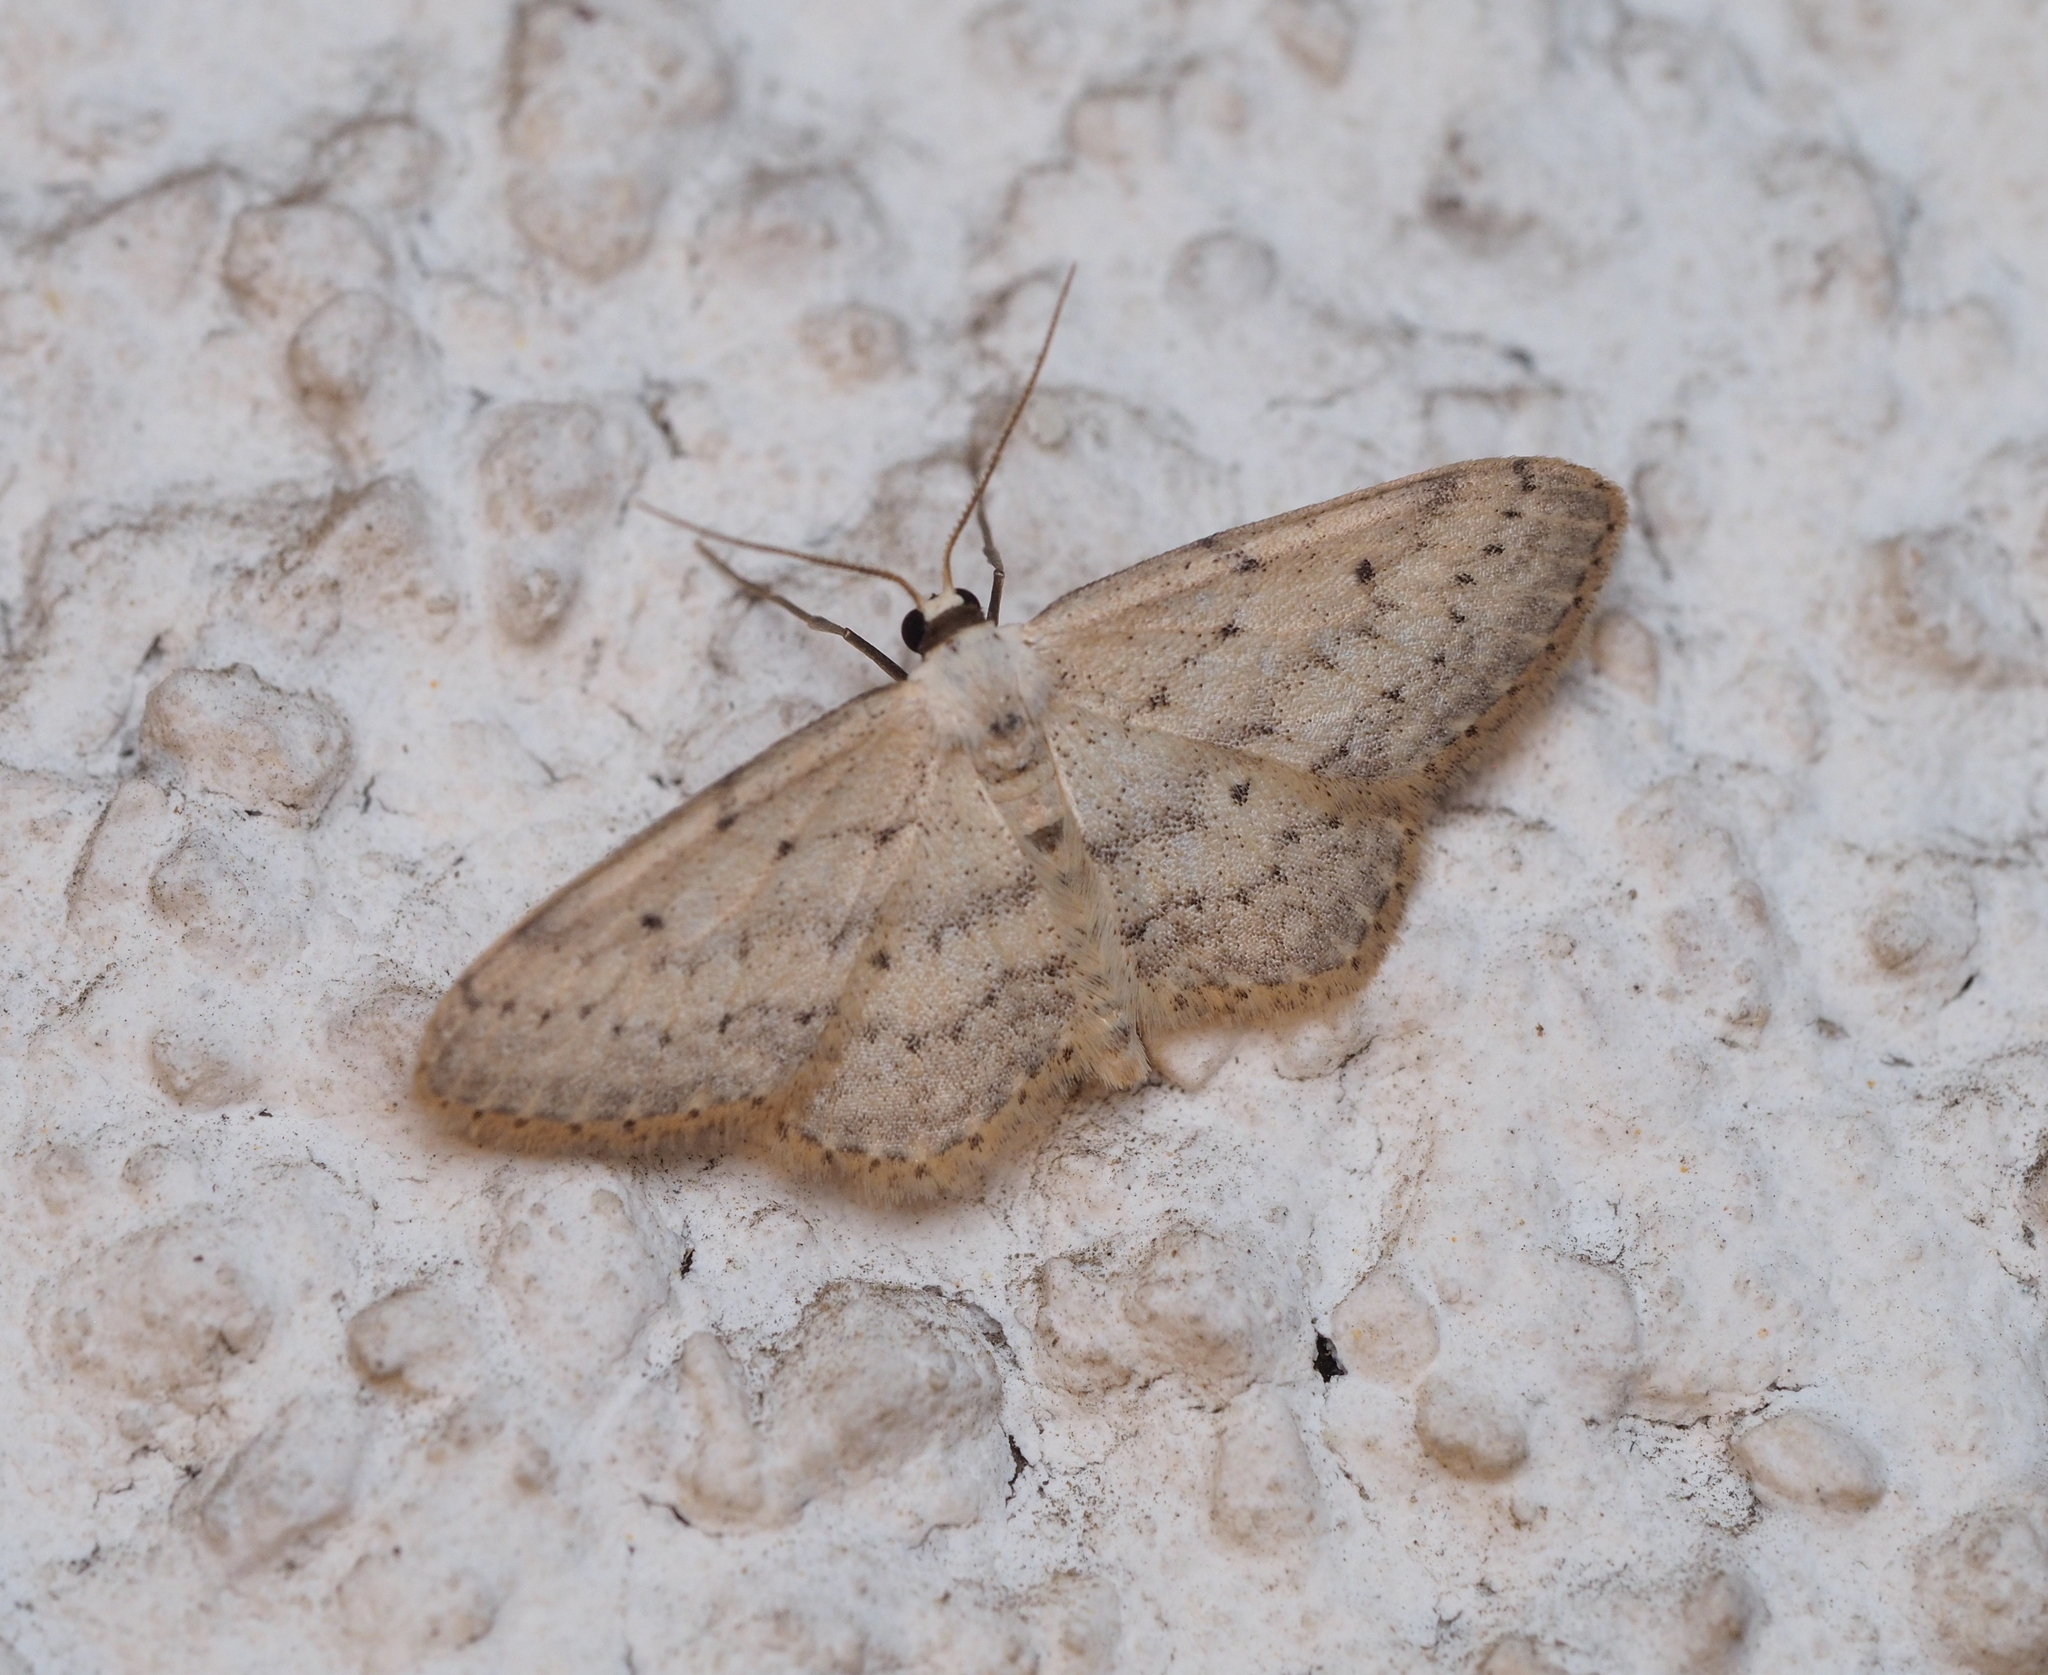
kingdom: Animalia
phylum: Arthropoda
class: Insecta
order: Lepidoptera
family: Geometridae
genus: Idaea
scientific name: Idaea seriata
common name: Small dusty wave
